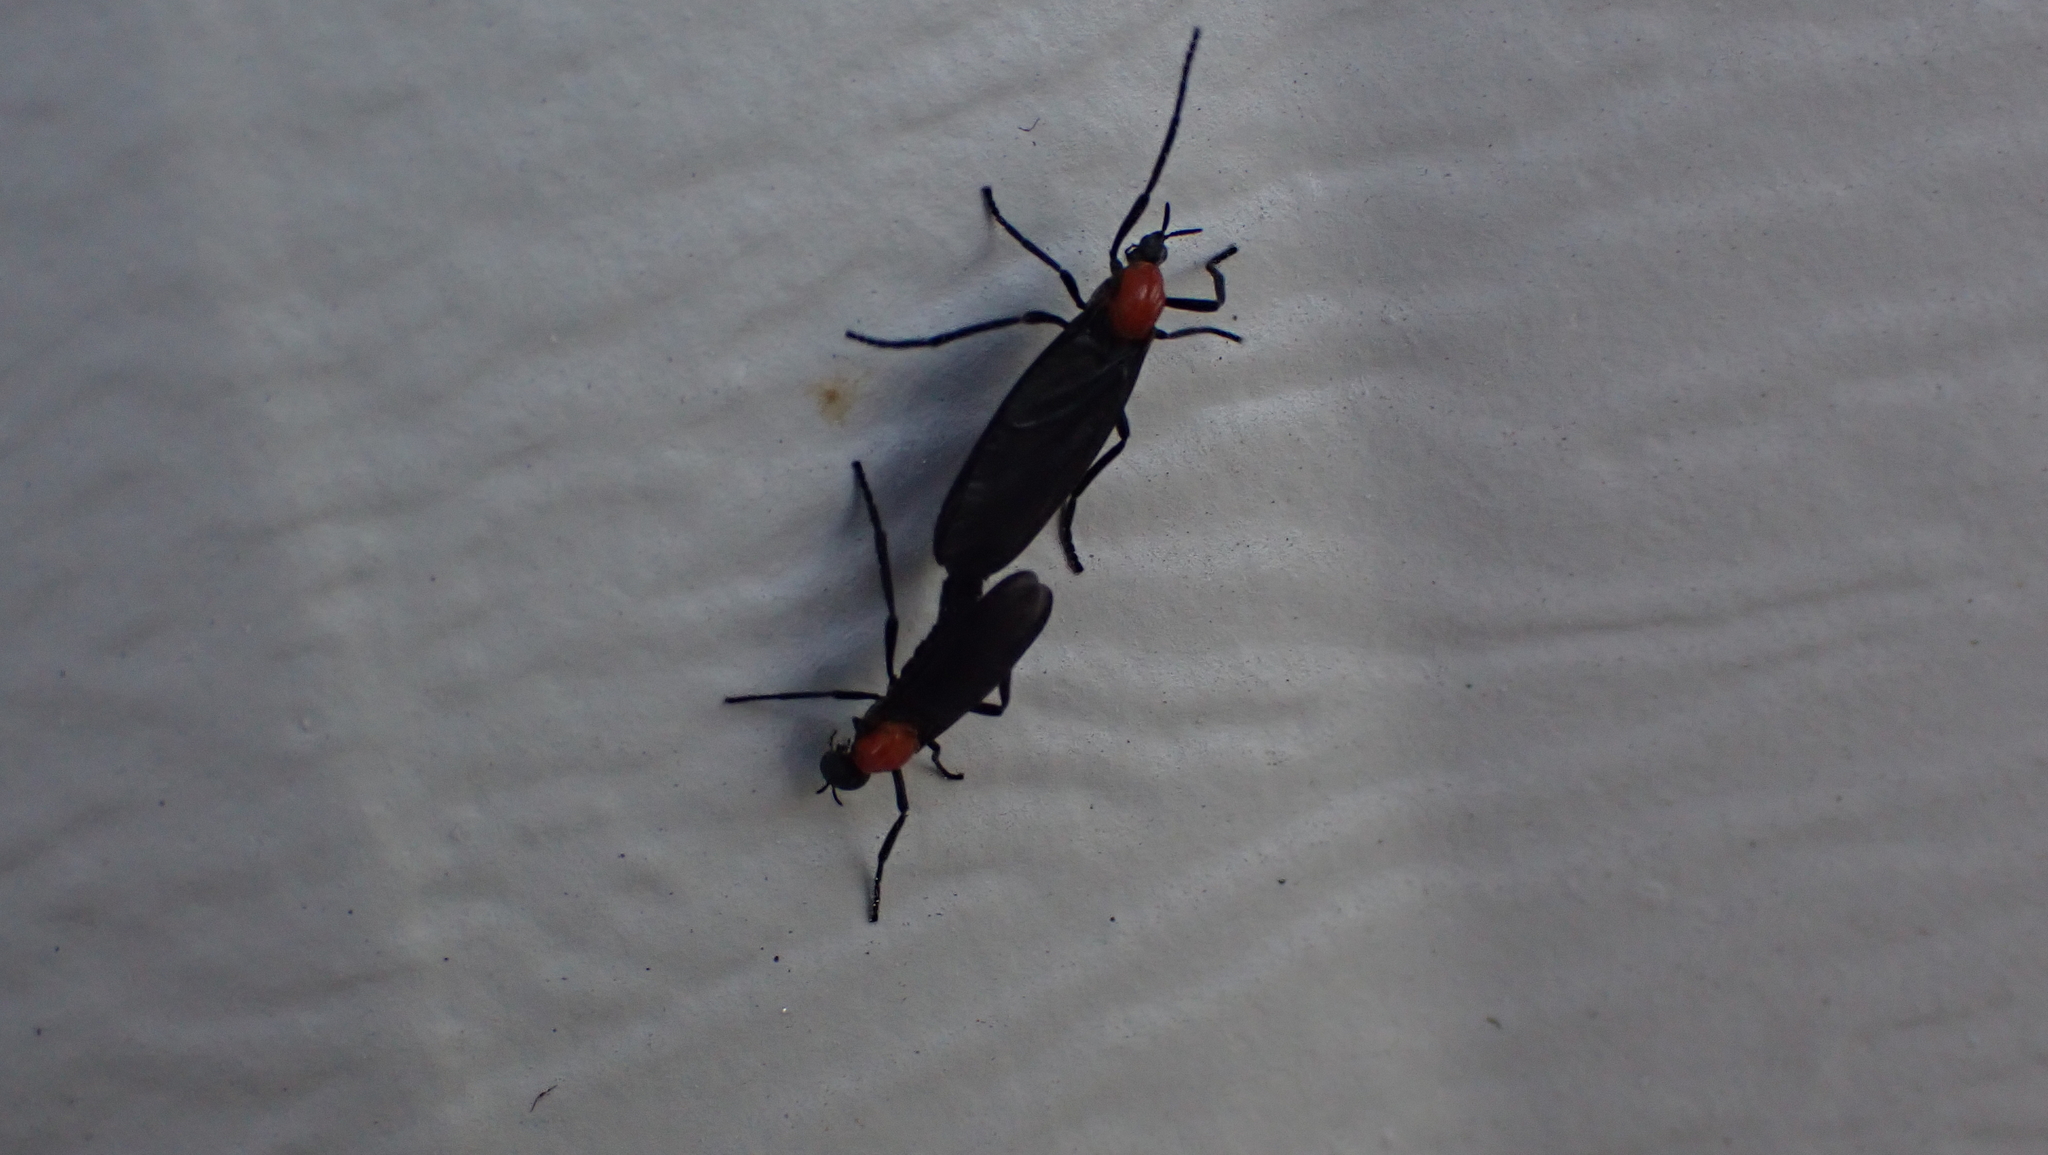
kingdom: Animalia
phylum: Arthropoda
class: Insecta
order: Diptera
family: Bibionidae
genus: Plecia
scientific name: Plecia nearctica
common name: March fly
